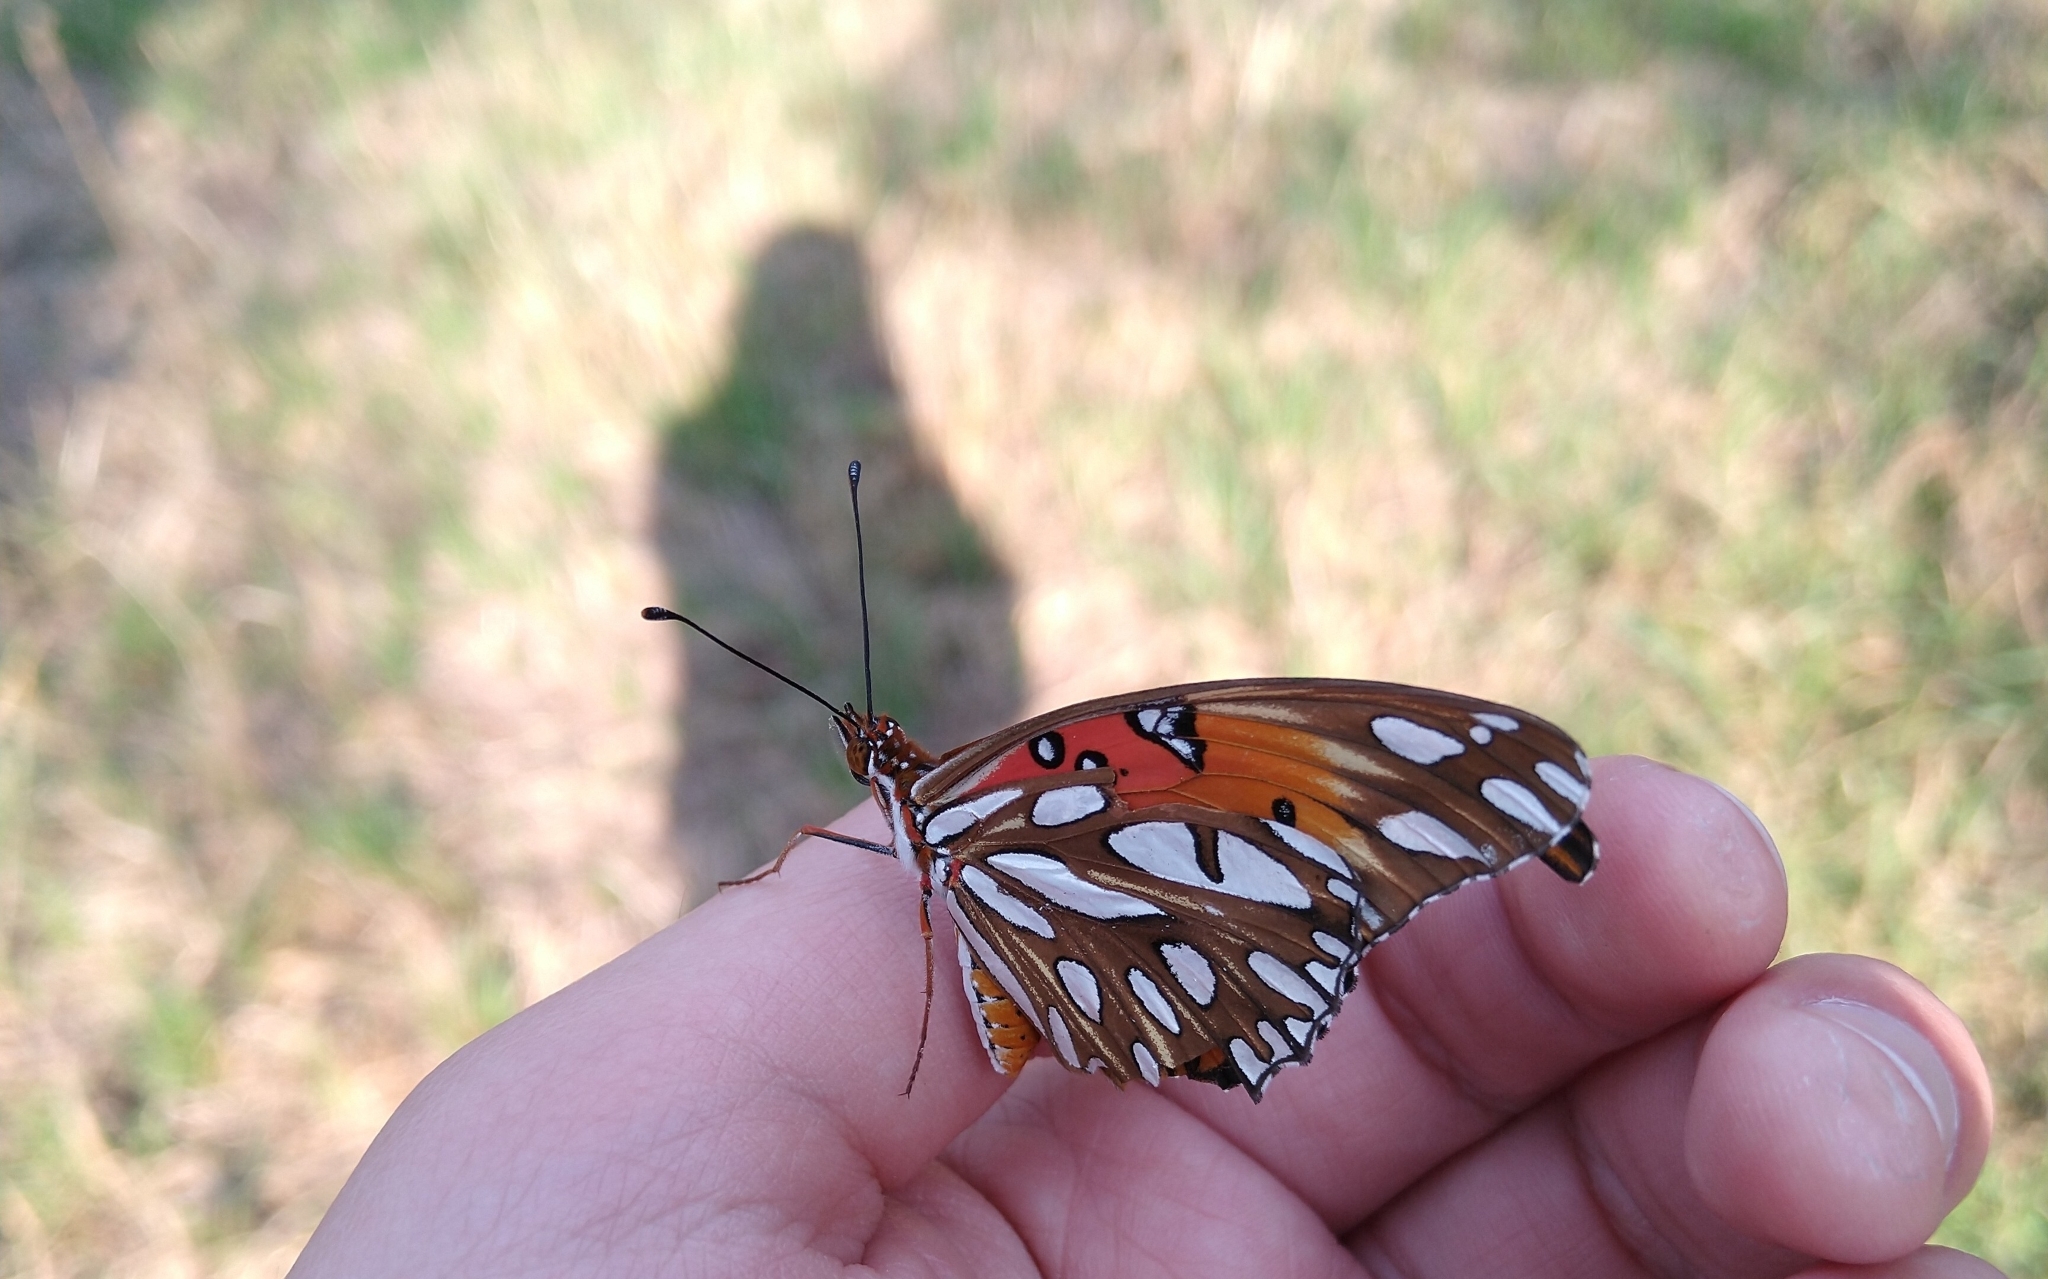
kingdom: Animalia
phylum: Arthropoda
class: Insecta
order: Lepidoptera
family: Nymphalidae
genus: Dione
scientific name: Dione vanillae
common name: Gulf fritillary
